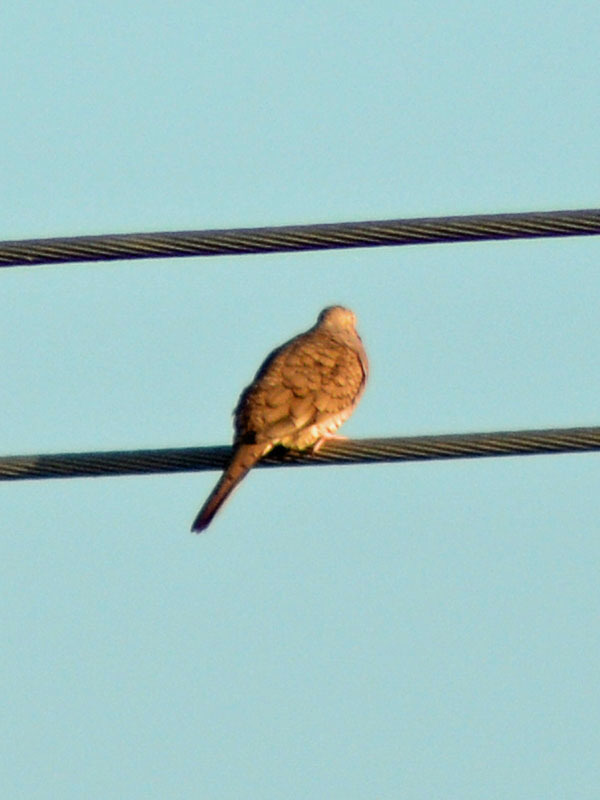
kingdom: Animalia
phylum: Chordata
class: Aves
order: Columbiformes
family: Columbidae
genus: Columbina
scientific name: Columbina inca
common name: Inca dove
